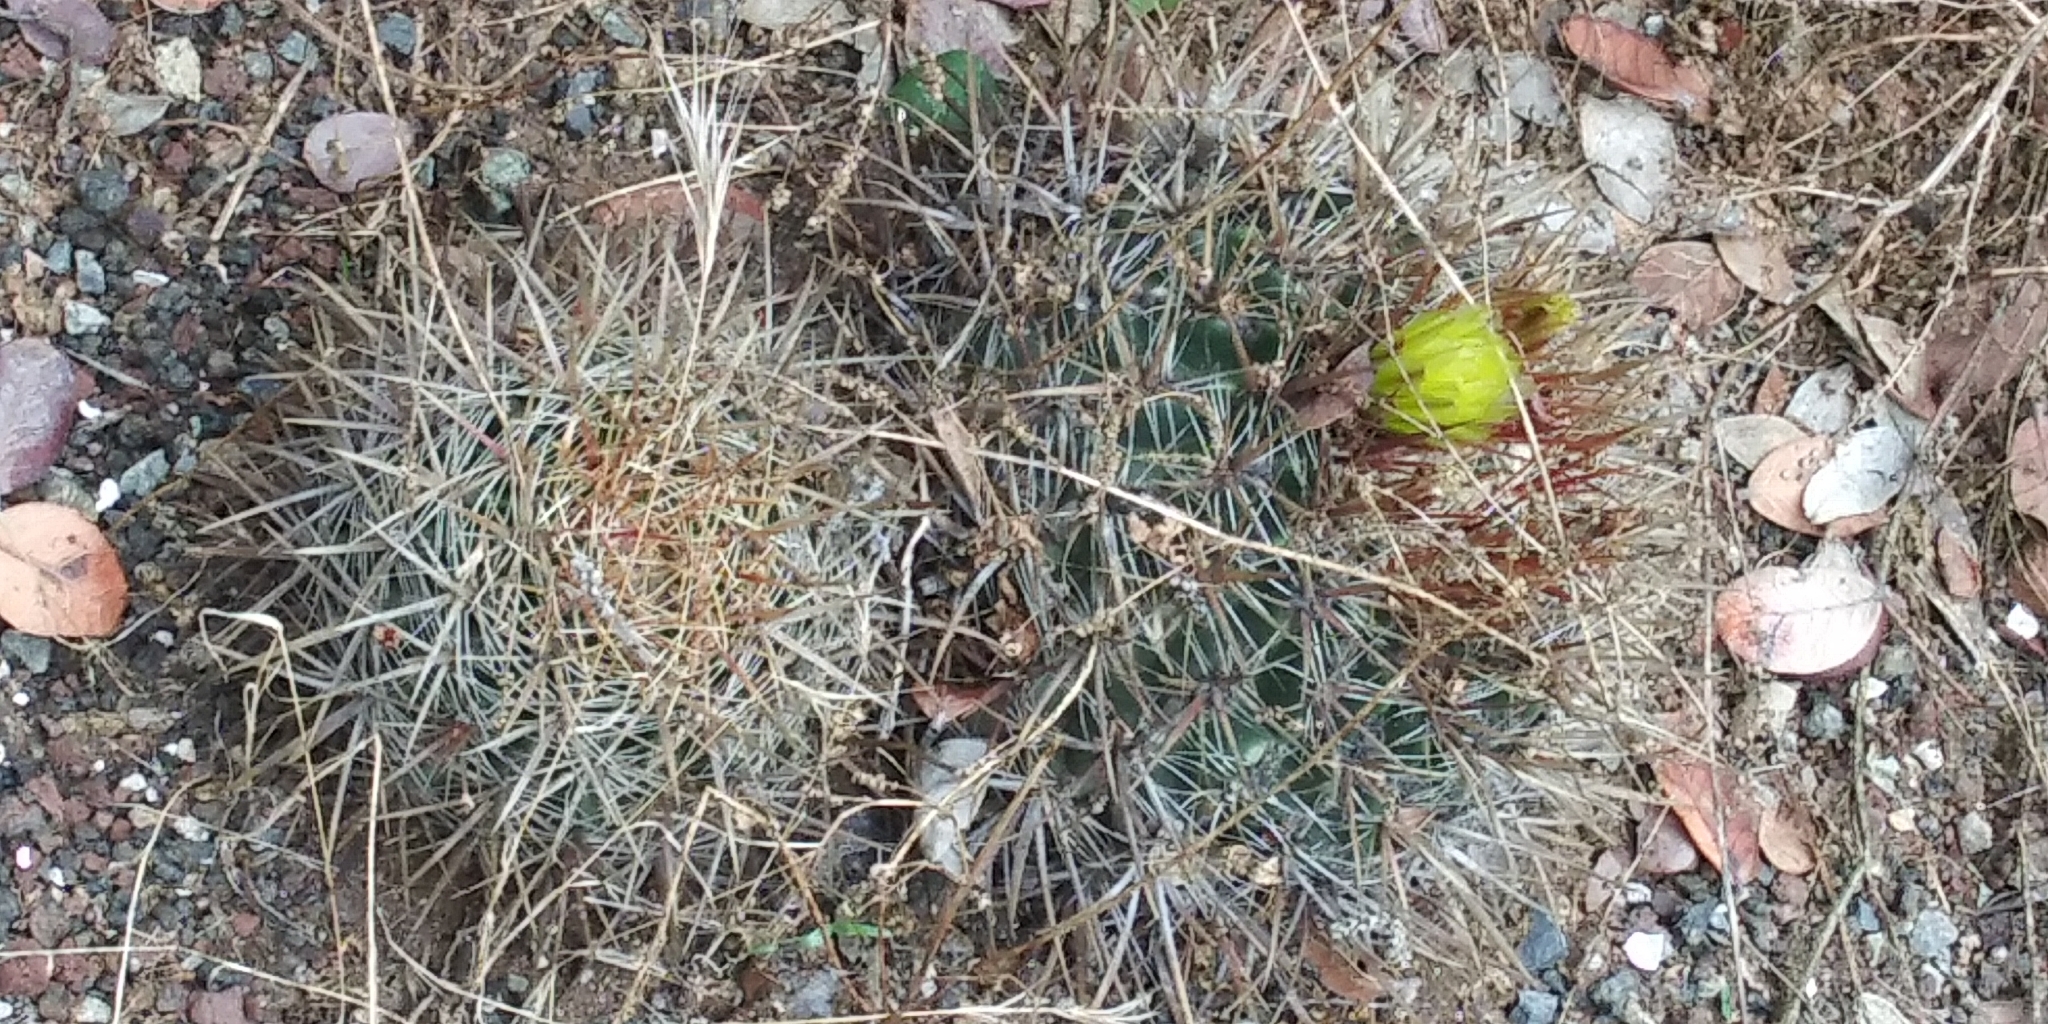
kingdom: Plantae
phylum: Tracheophyta
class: Magnoliopsida
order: Caryophyllales
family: Cactaceae
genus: Ferocactus
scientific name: Ferocactus viridescens
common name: San diego barrel cactus
